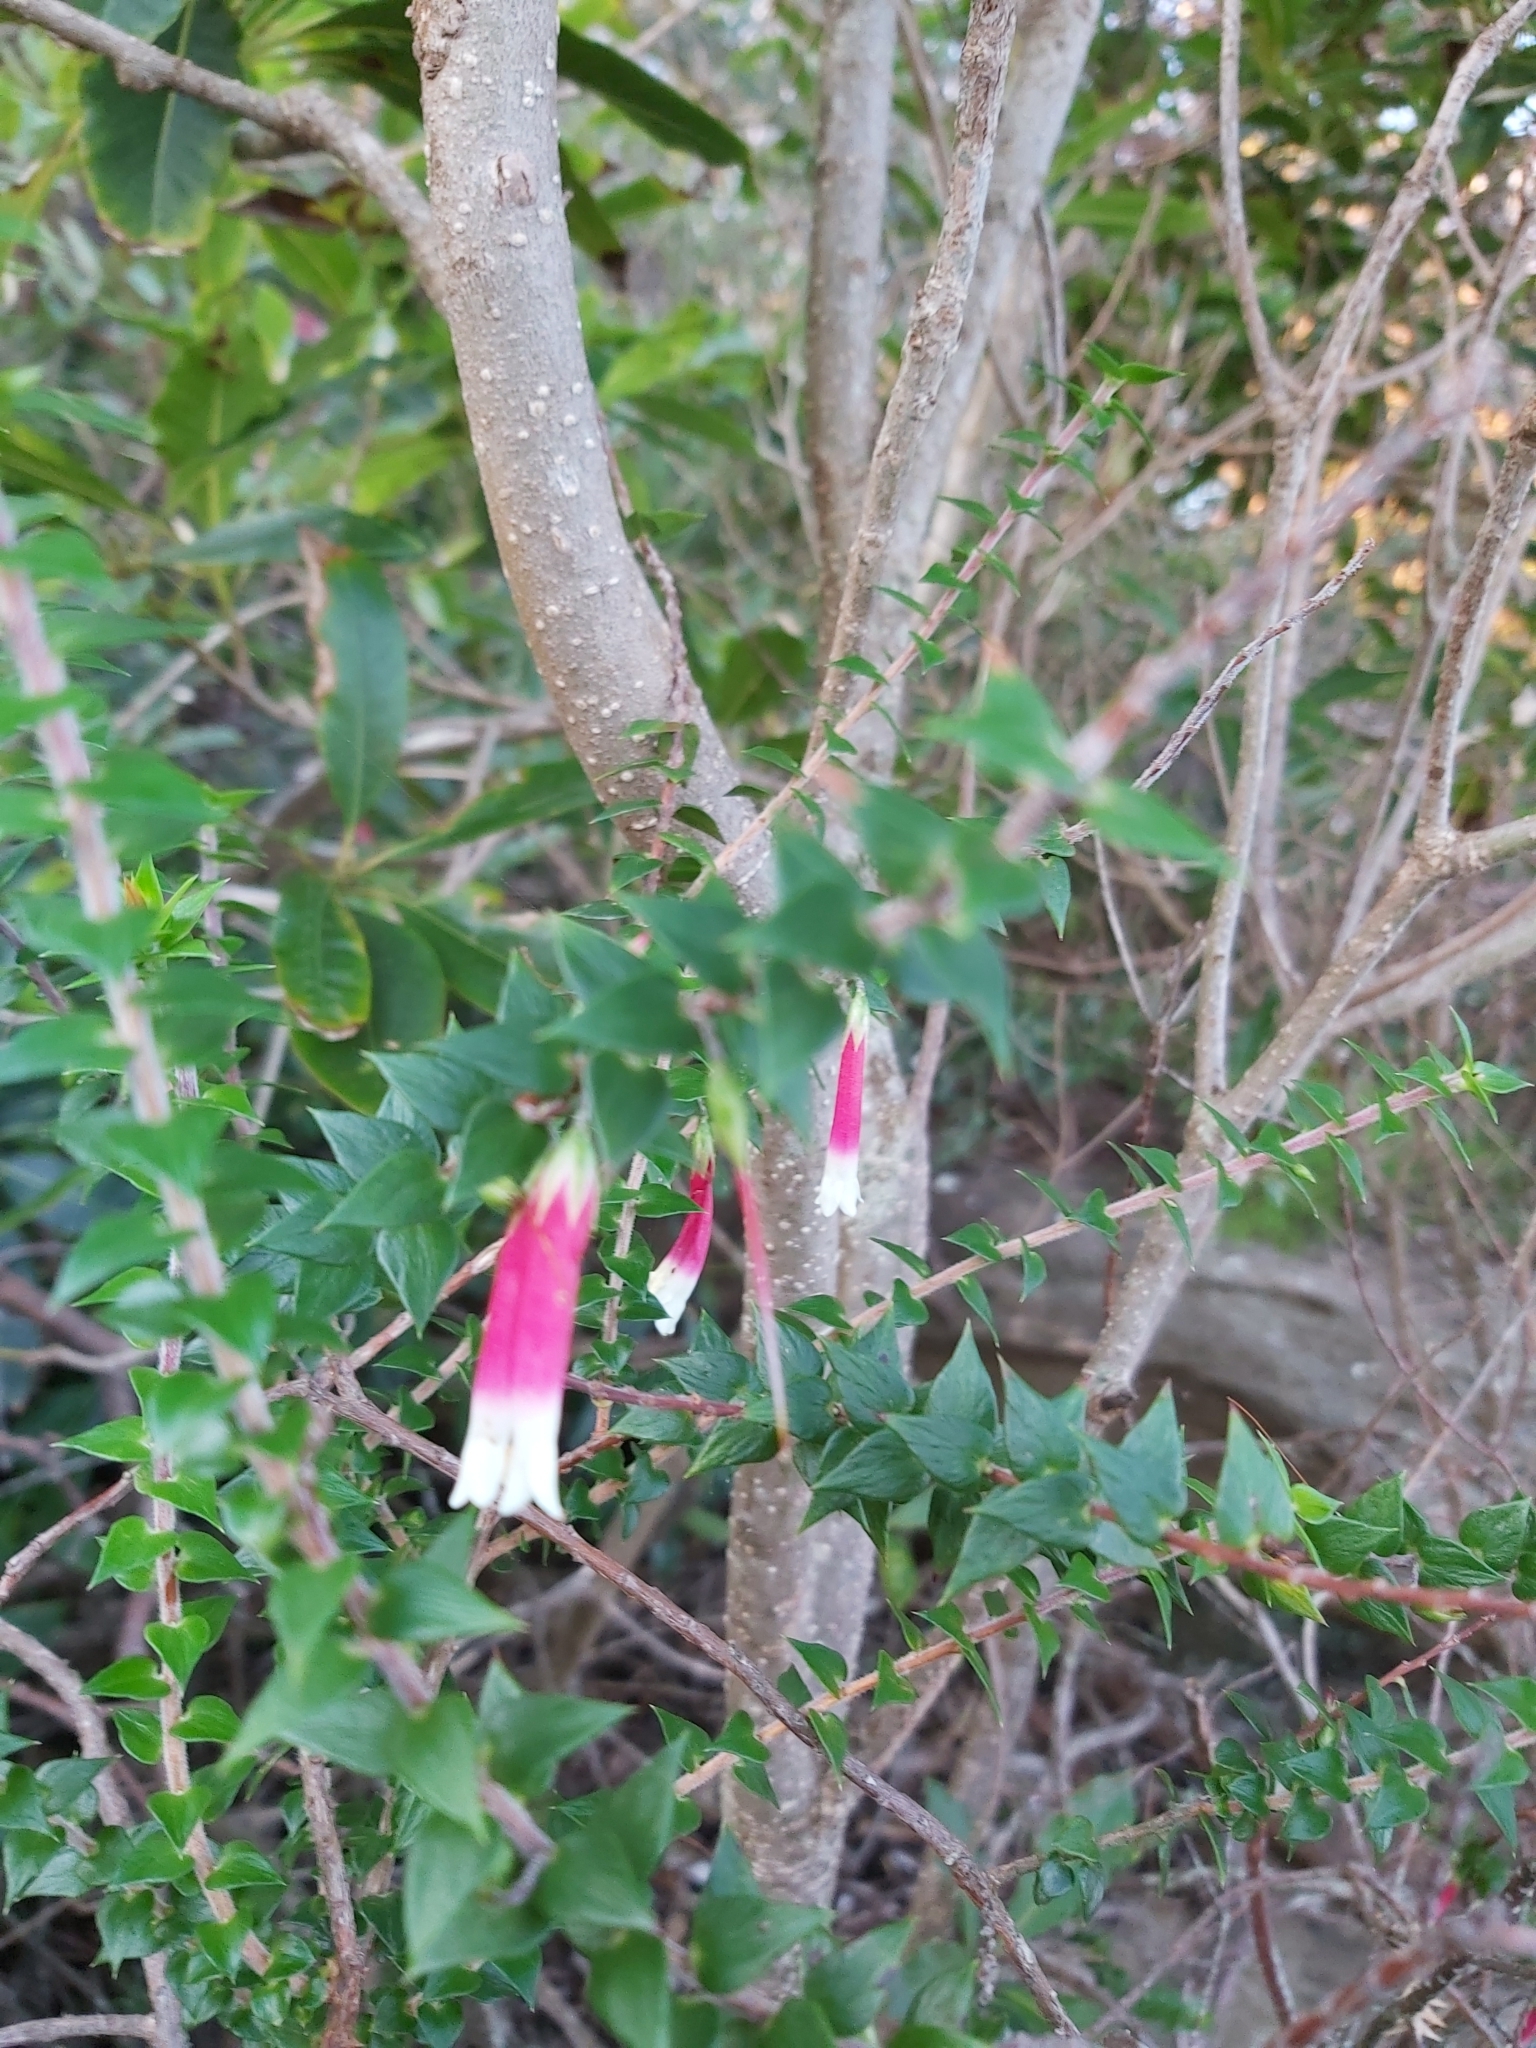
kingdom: Plantae
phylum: Tracheophyta
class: Magnoliopsida
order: Ericales
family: Ericaceae
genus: Epacris
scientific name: Epacris longiflora
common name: Fuchsia-heath
